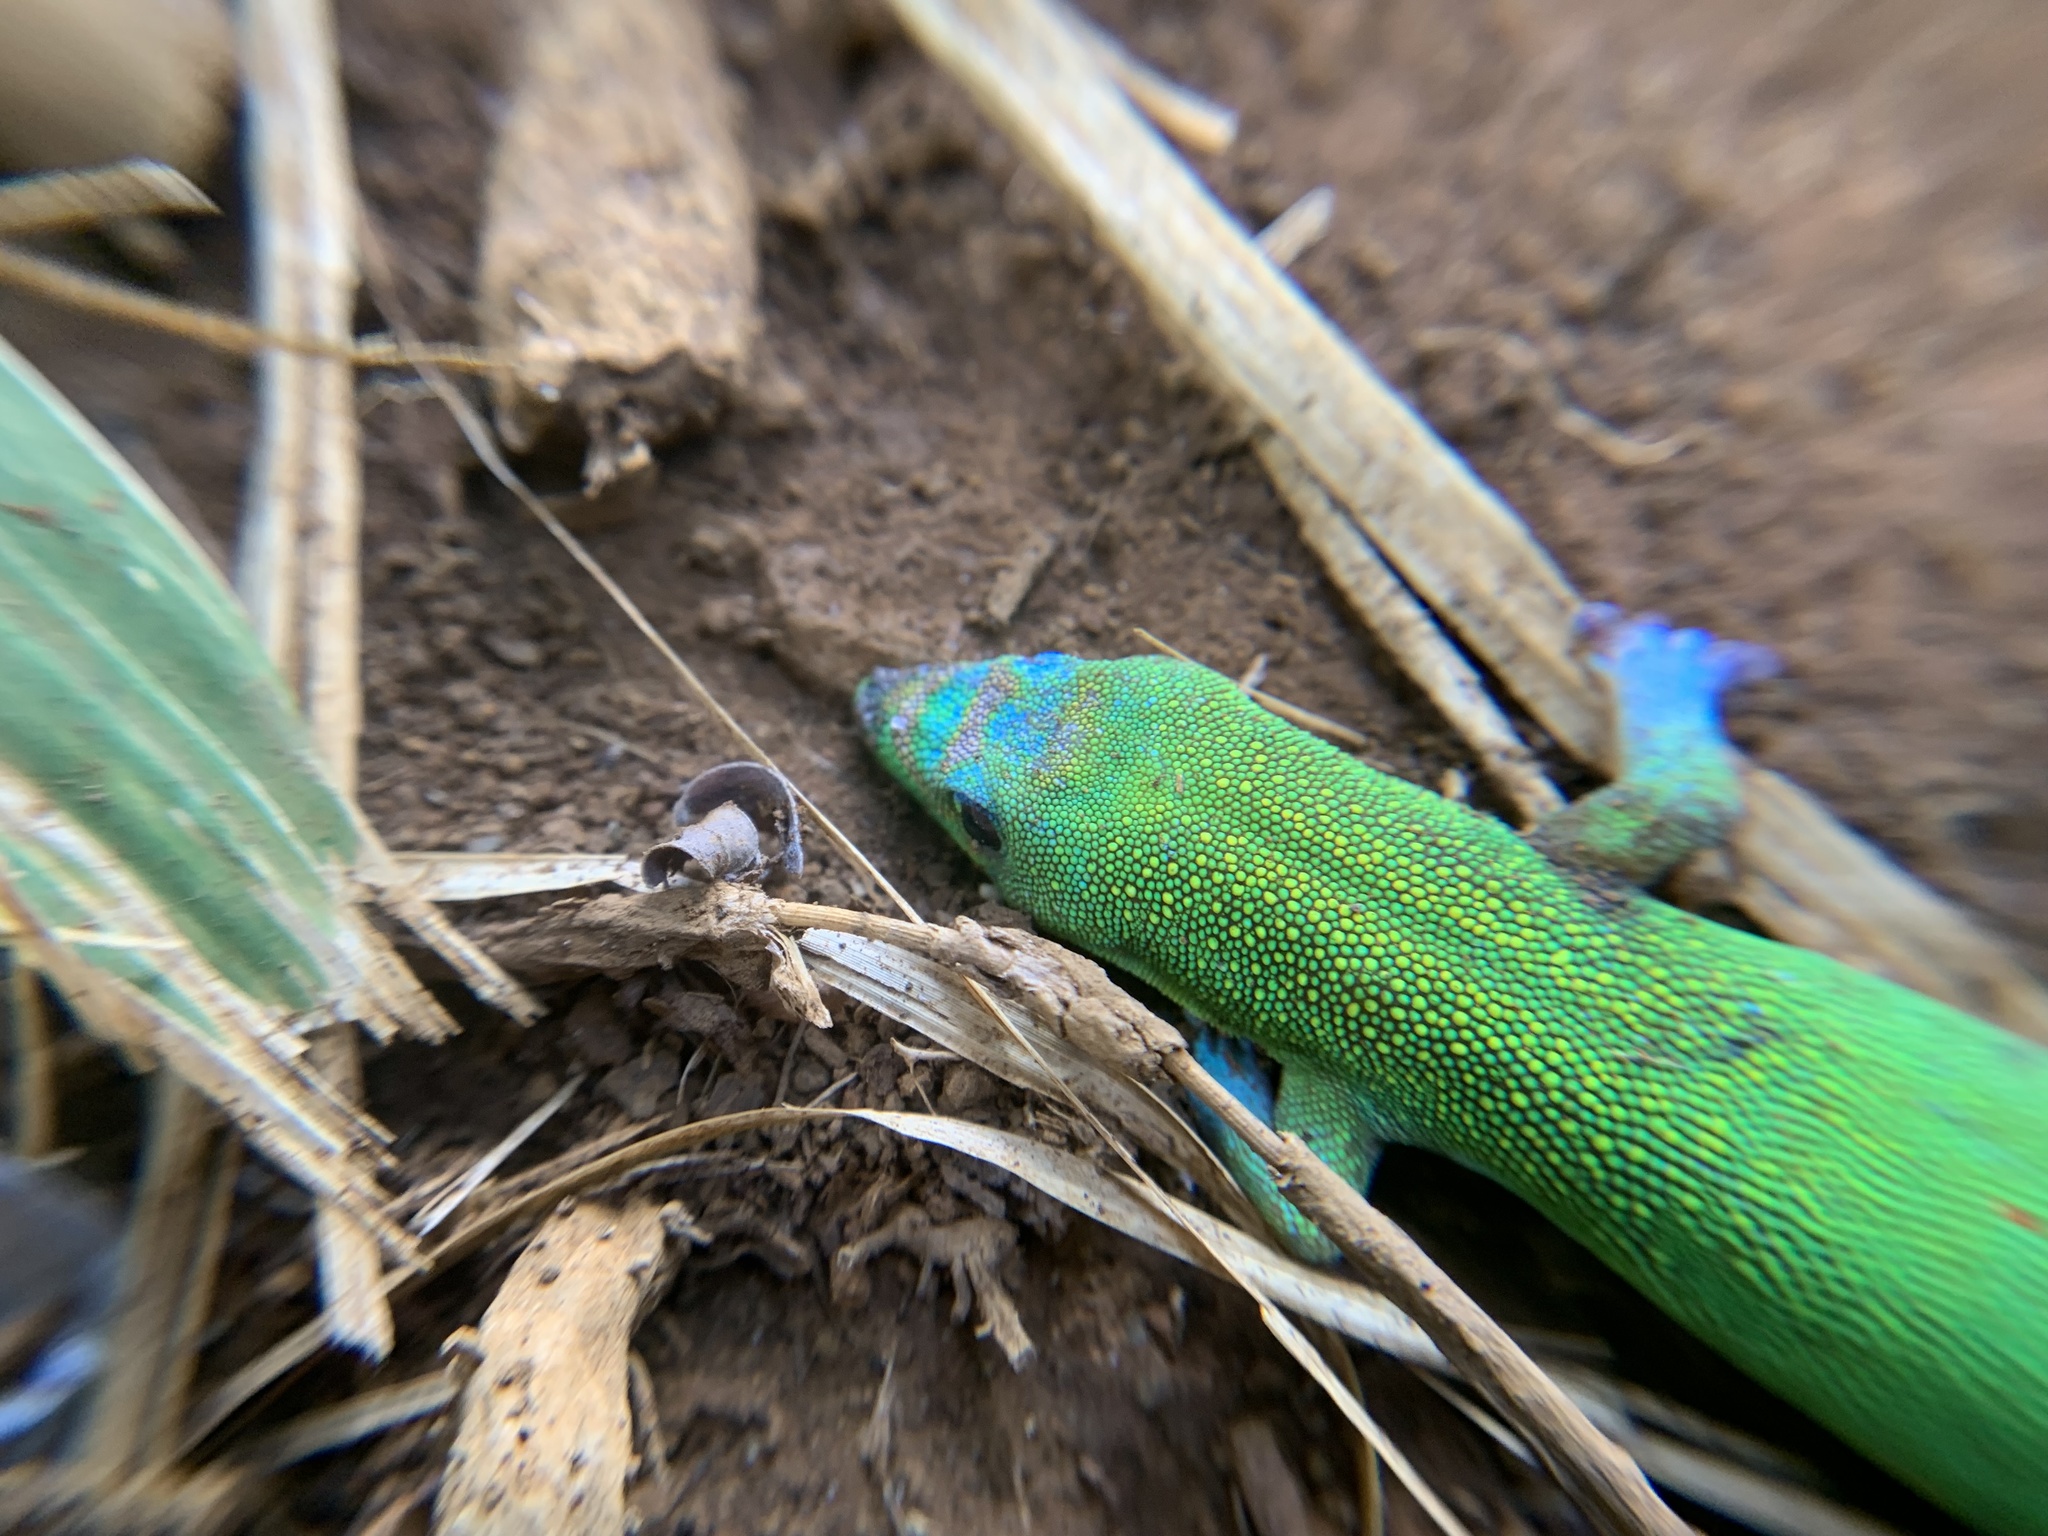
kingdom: Animalia
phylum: Chordata
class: Squamata
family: Gekkonidae
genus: Phelsuma
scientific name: Phelsuma laticauda
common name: Gold dust day gecko
